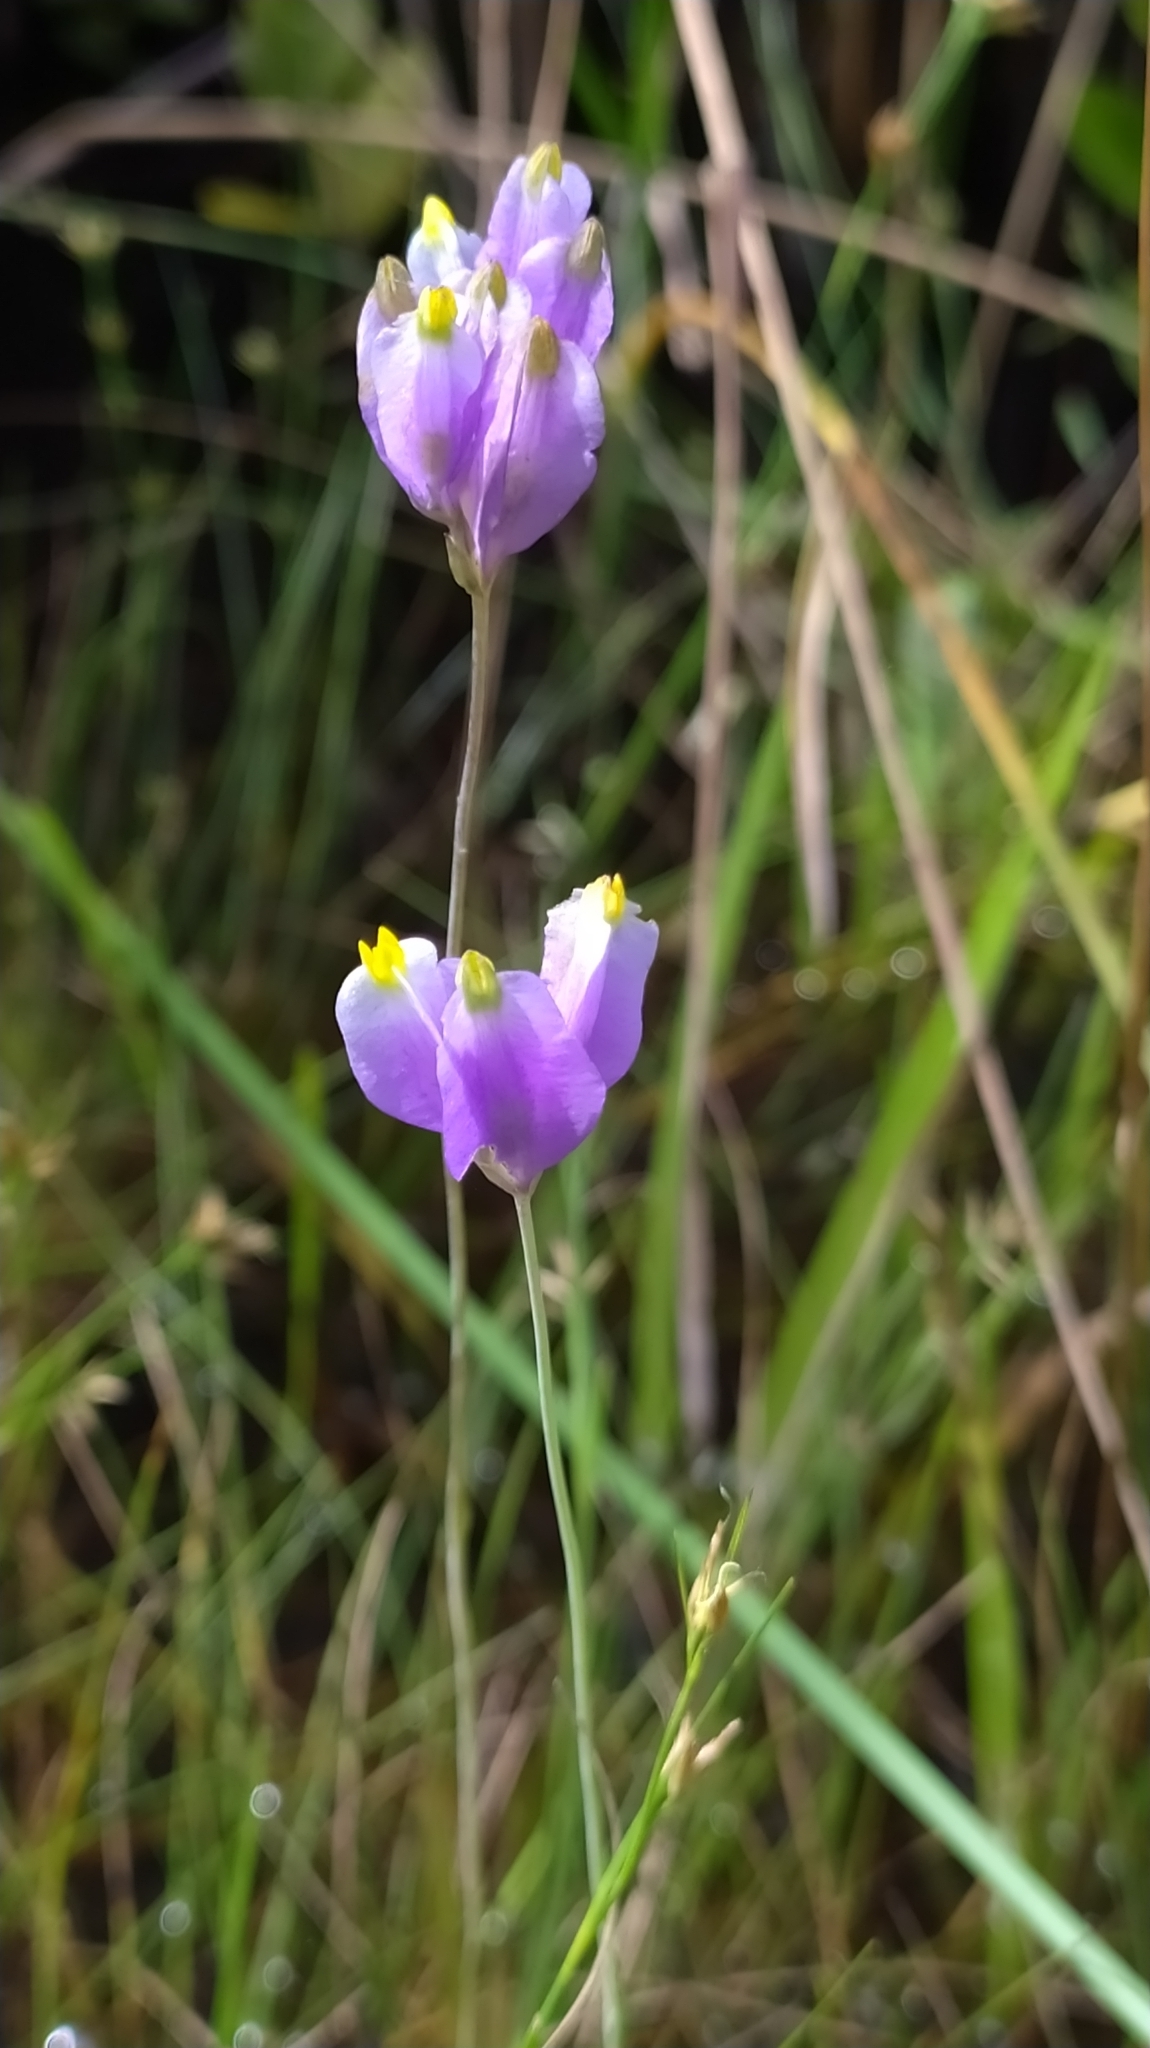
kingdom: Plantae
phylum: Tracheophyta
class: Liliopsida
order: Dioscoreales
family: Burmanniaceae
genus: Burmannia
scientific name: Burmannia bicolor
